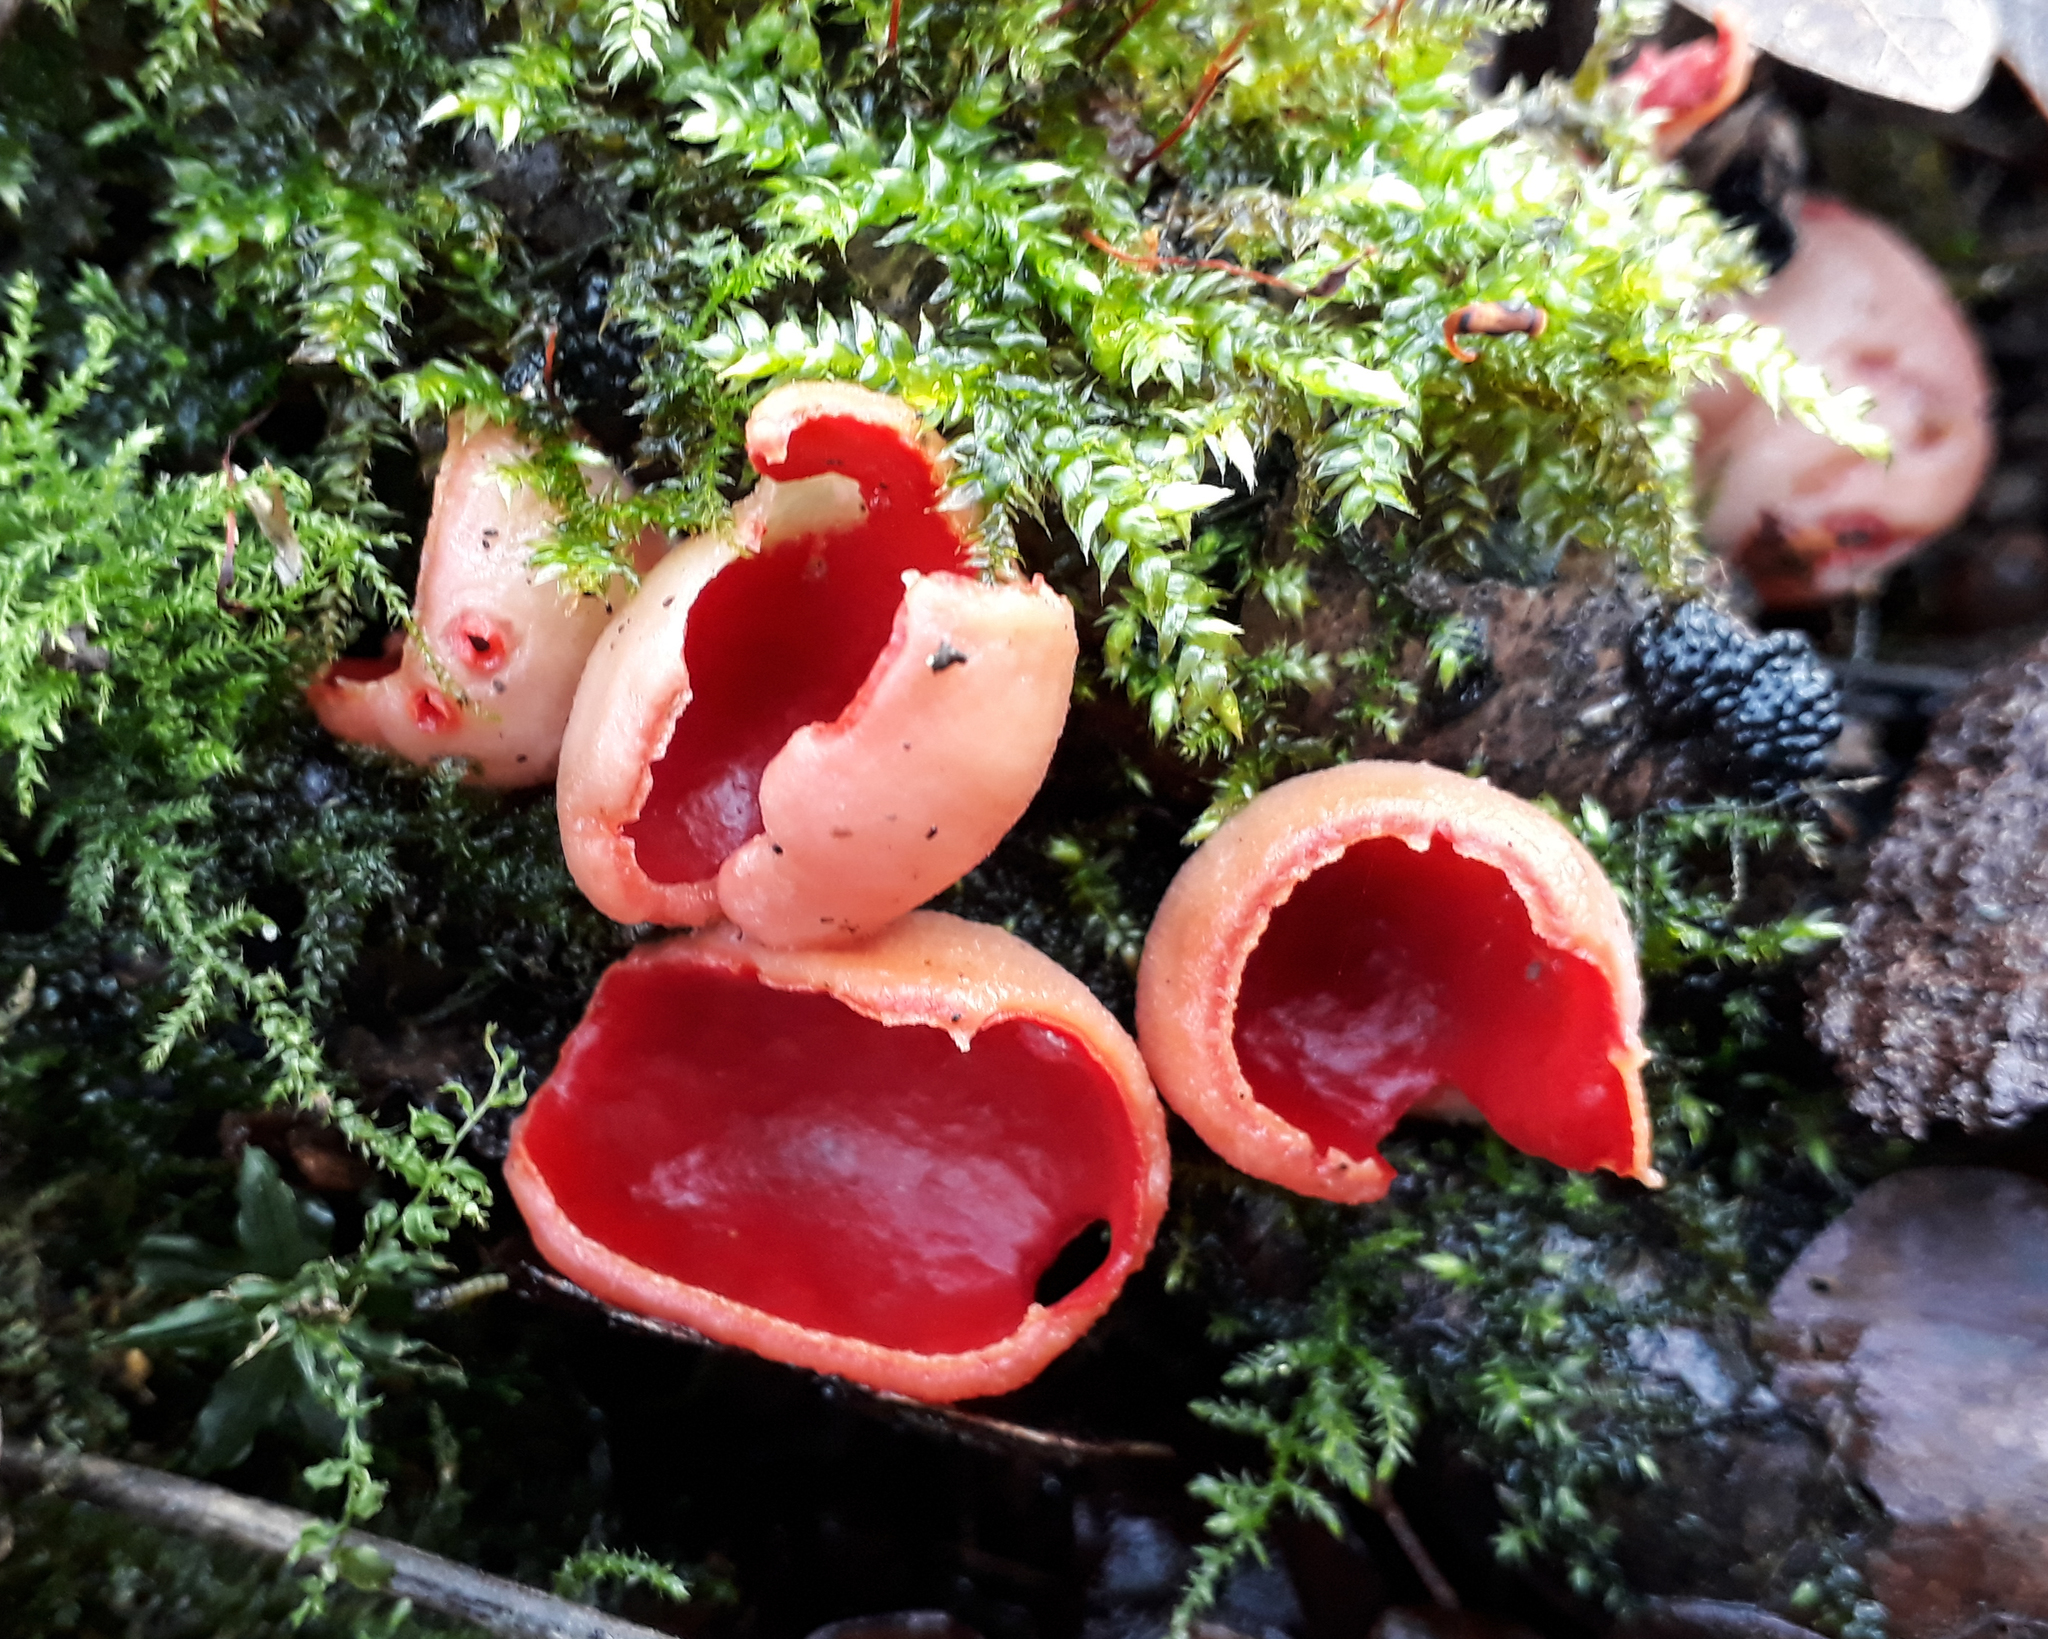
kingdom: Fungi
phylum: Ascomycota
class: Pezizomycetes
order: Pezizales
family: Sarcoscyphaceae
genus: Sarcoscypha
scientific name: Sarcoscypha
